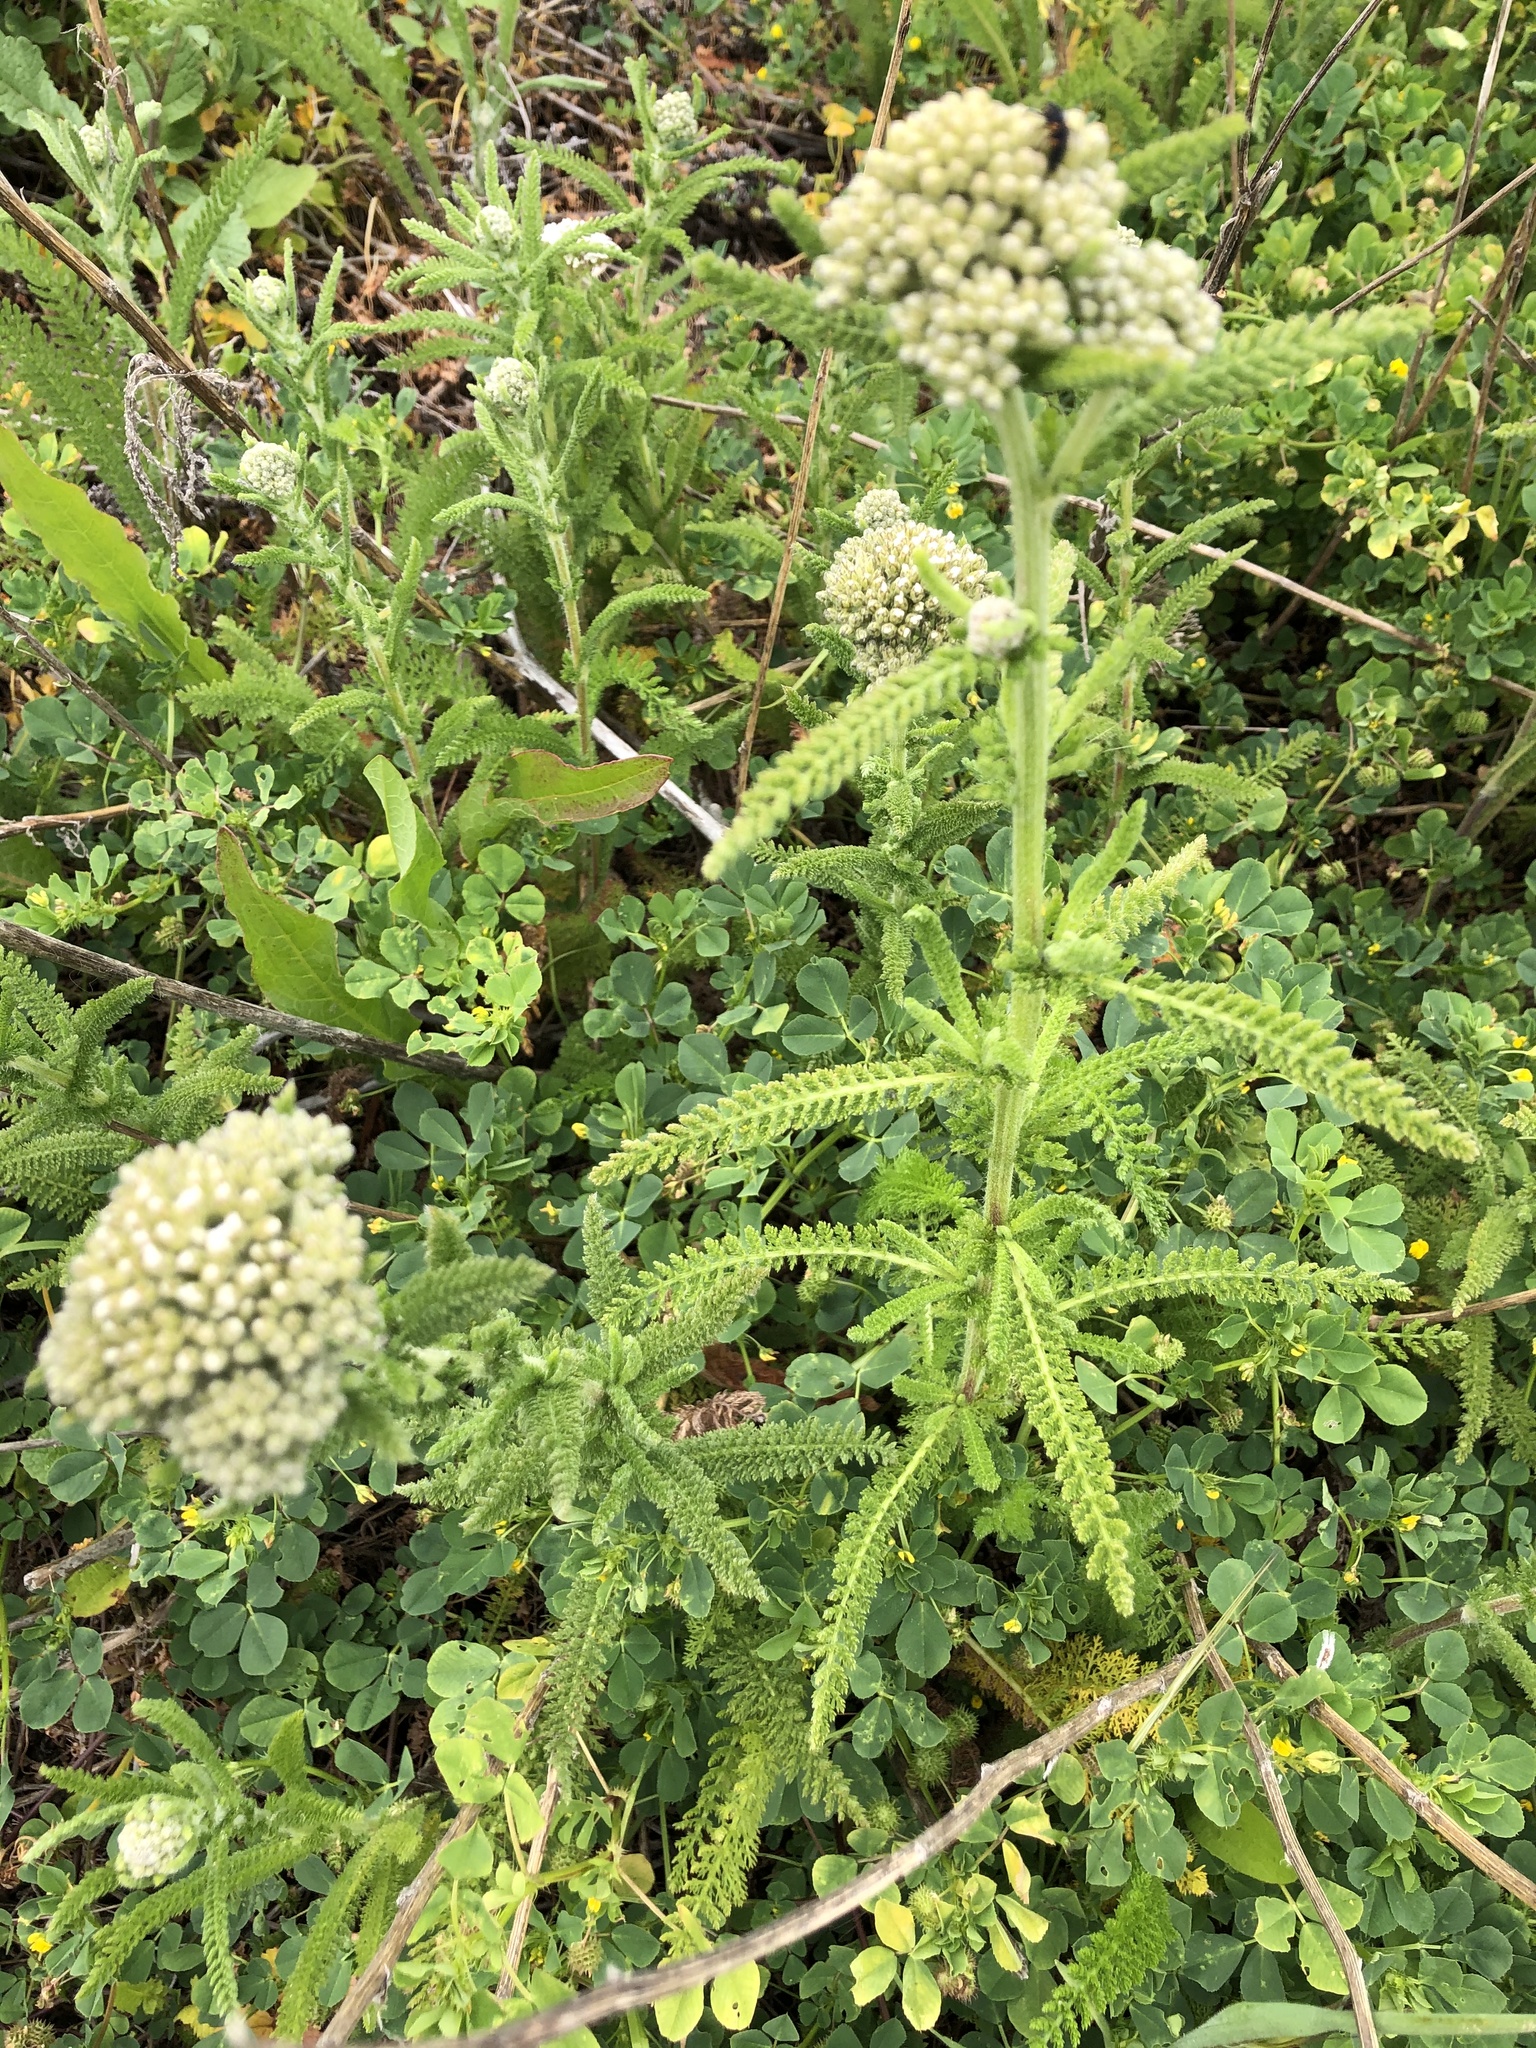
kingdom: Plantae
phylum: Tracheophyta
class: Magnoliopsida
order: Asterales
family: Asteraceae
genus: Achillea
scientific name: Achillea millefolium
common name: Yarrow
